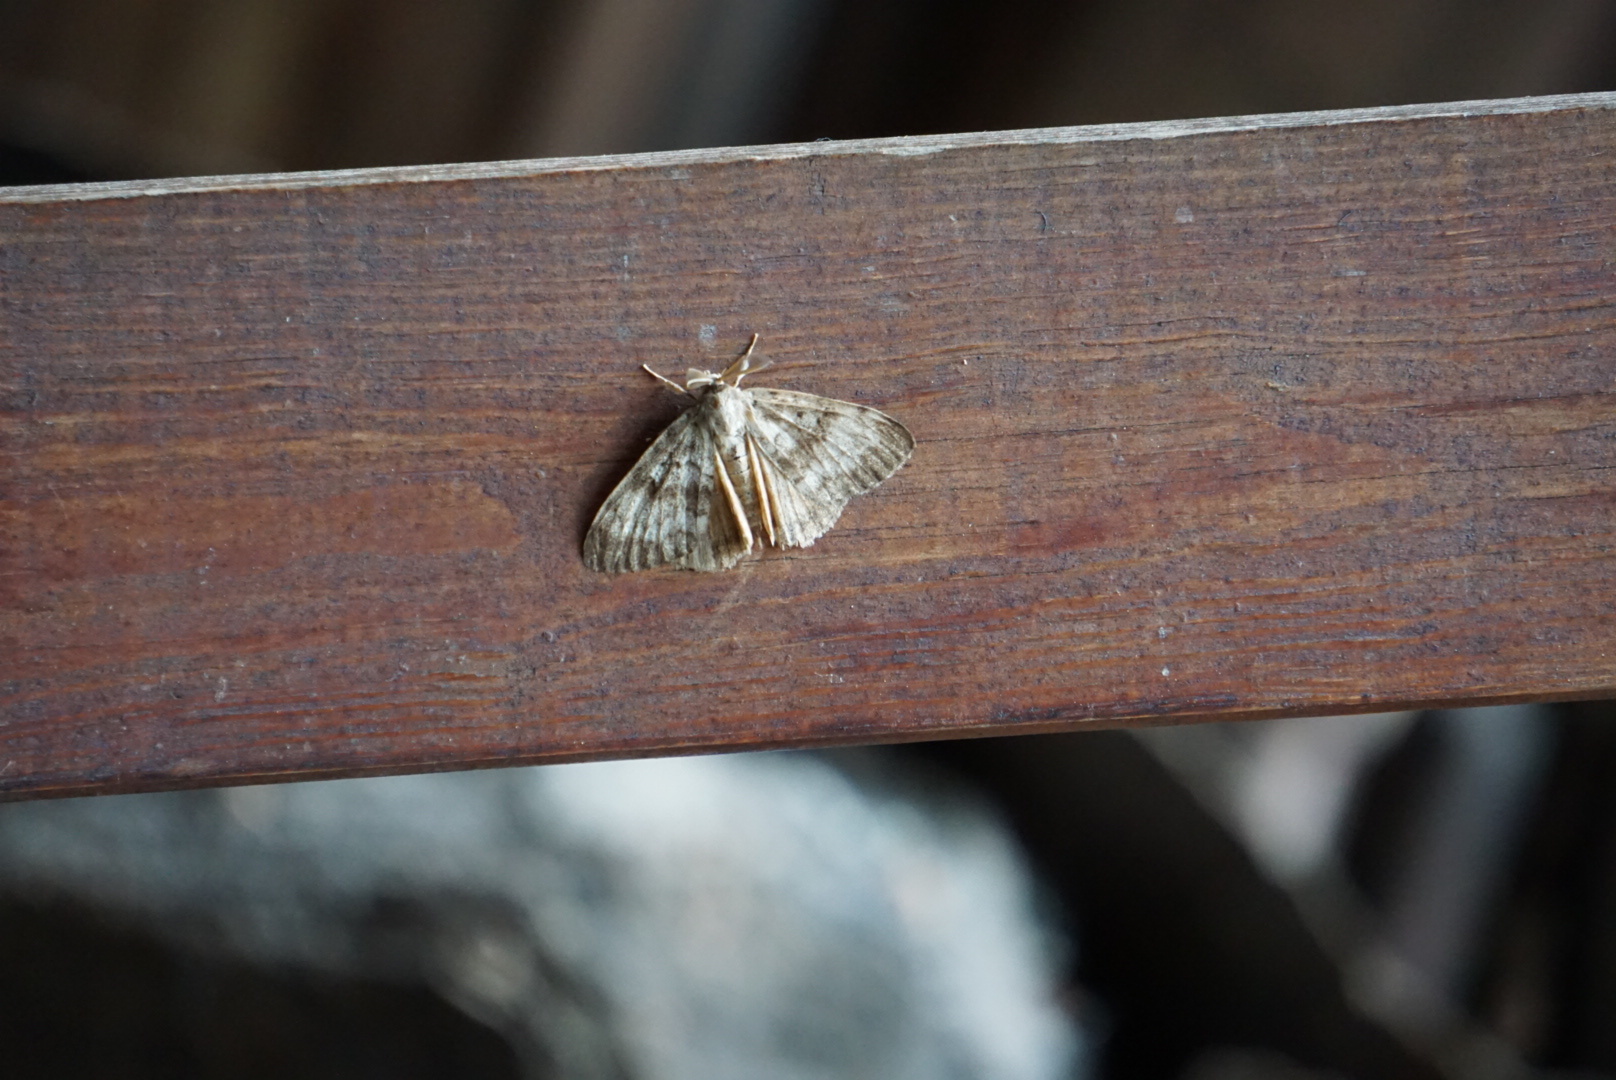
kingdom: Animalia
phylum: Arthropoda
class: Insecta
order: Lepidoptera
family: Erebidae
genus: Lymantria
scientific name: Lymantria dispar
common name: Gypsy moth
